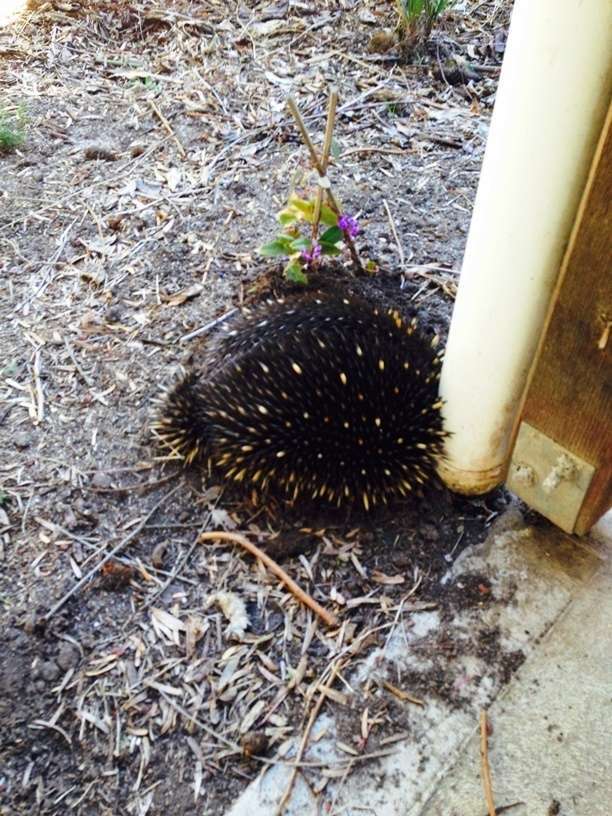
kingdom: Animalia
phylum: Chordata
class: Mammalia
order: Monotremata
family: Tachyglossidae
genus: Tachyglossus
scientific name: Tachyglossus aculeatus
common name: Short-beaked echidna
